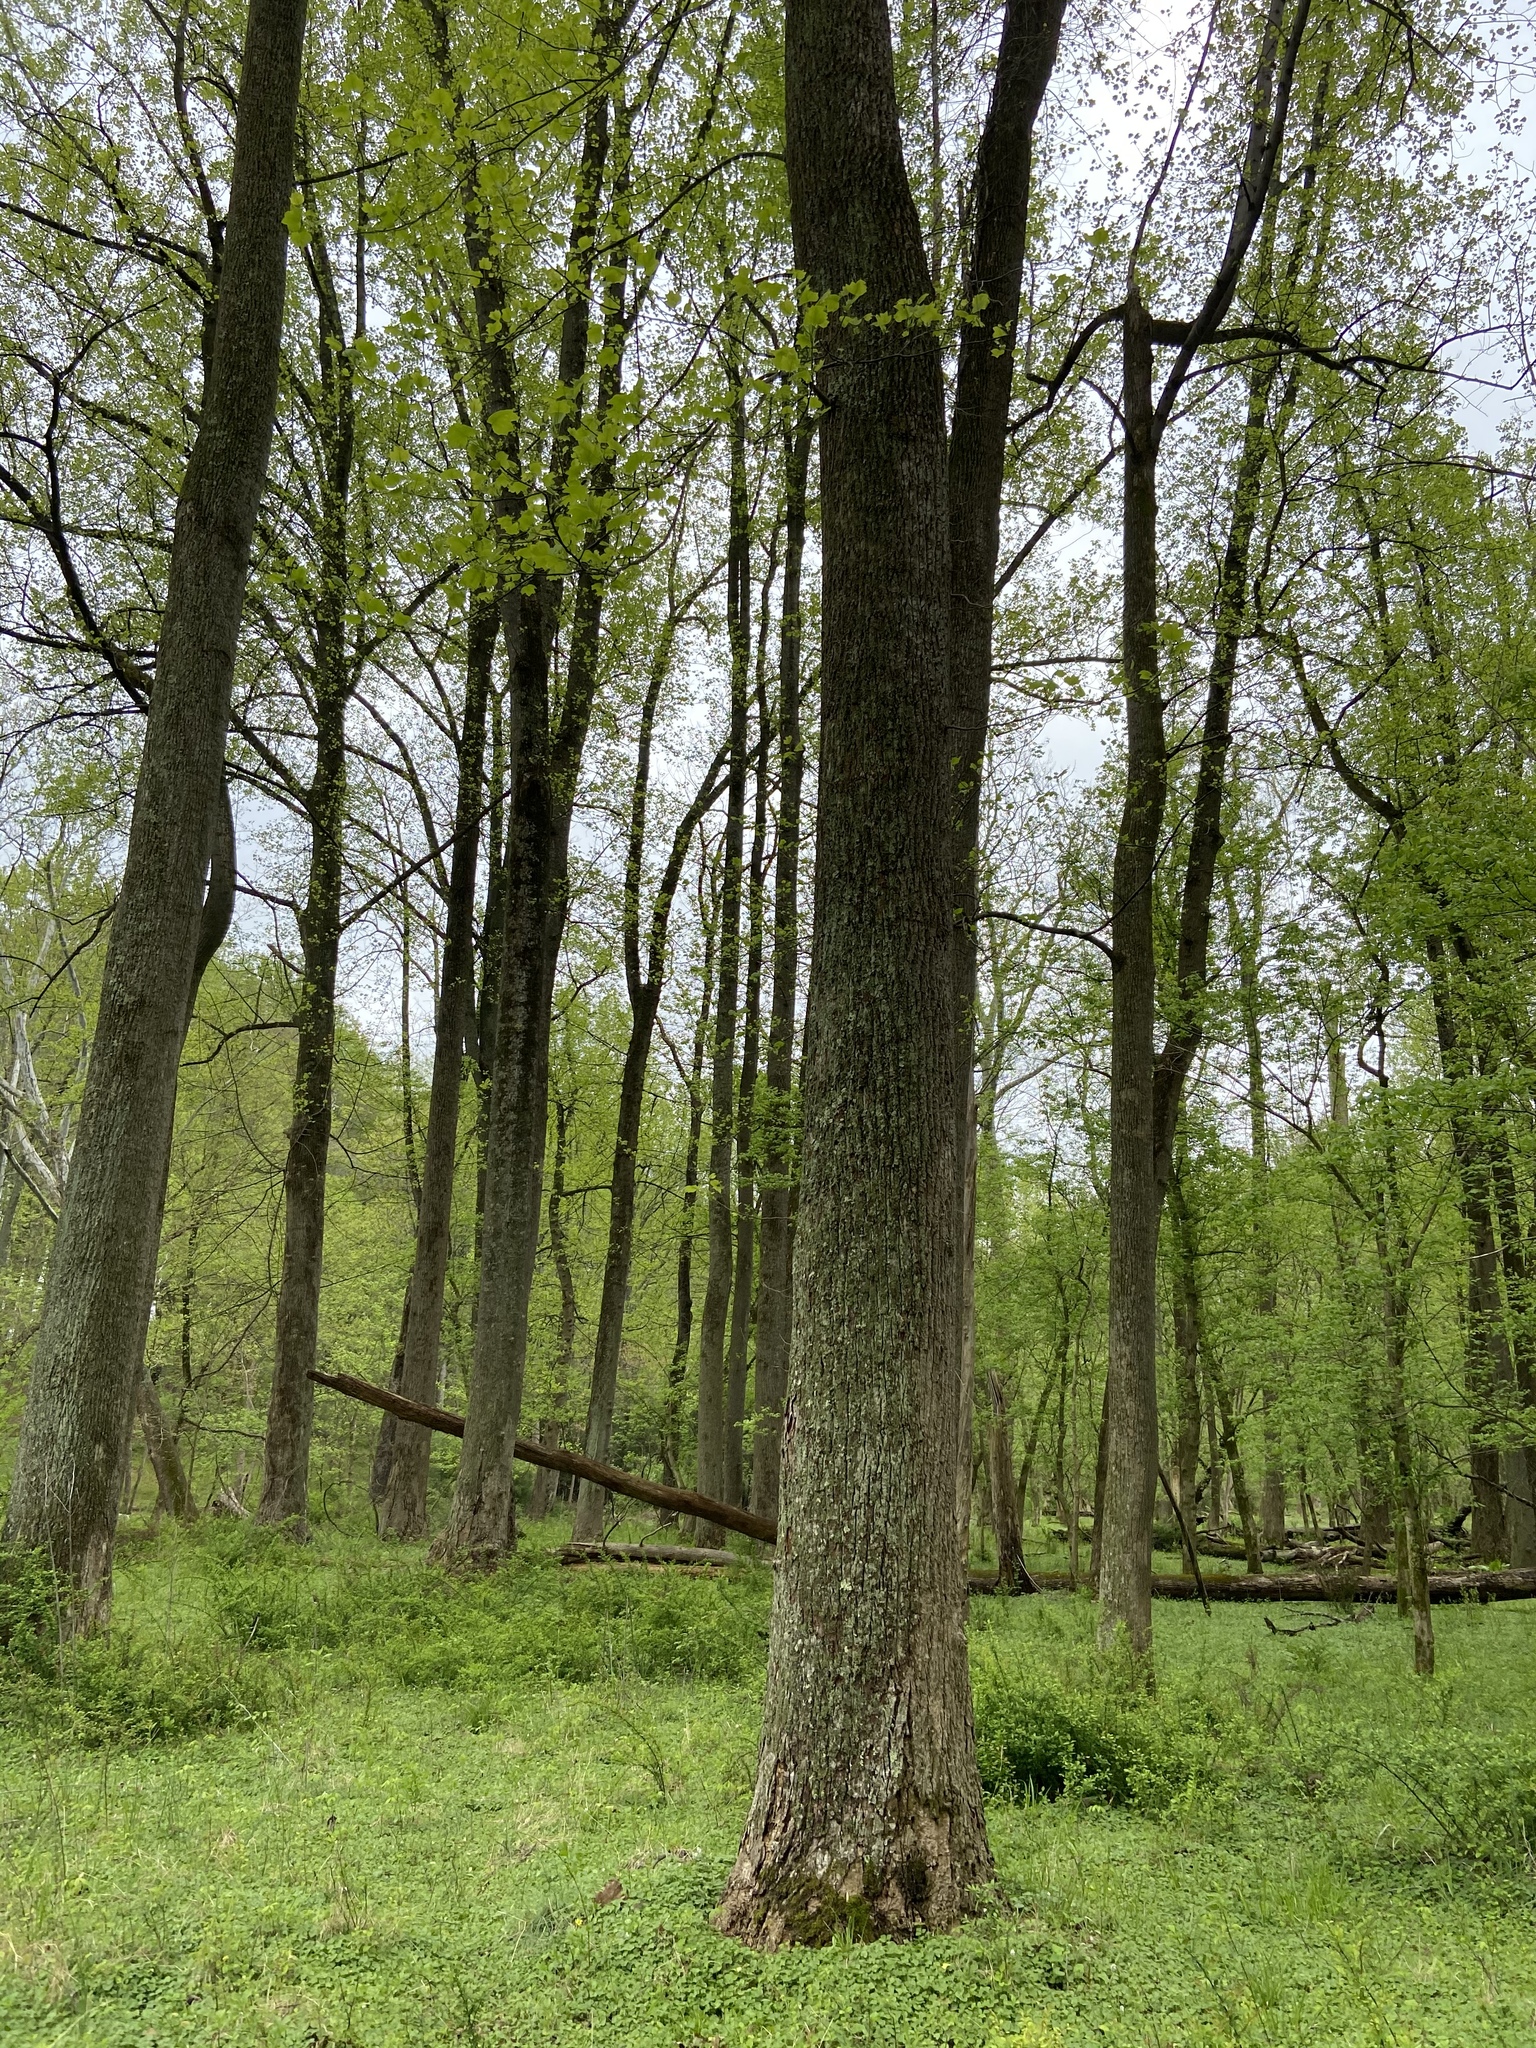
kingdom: Plantae
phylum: Tracheophyta
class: Magnoliopsida
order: Magnoliales
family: Magnoliaceae
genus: Liriodendron
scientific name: Liriodendron tulipifera
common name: Tulip tree
